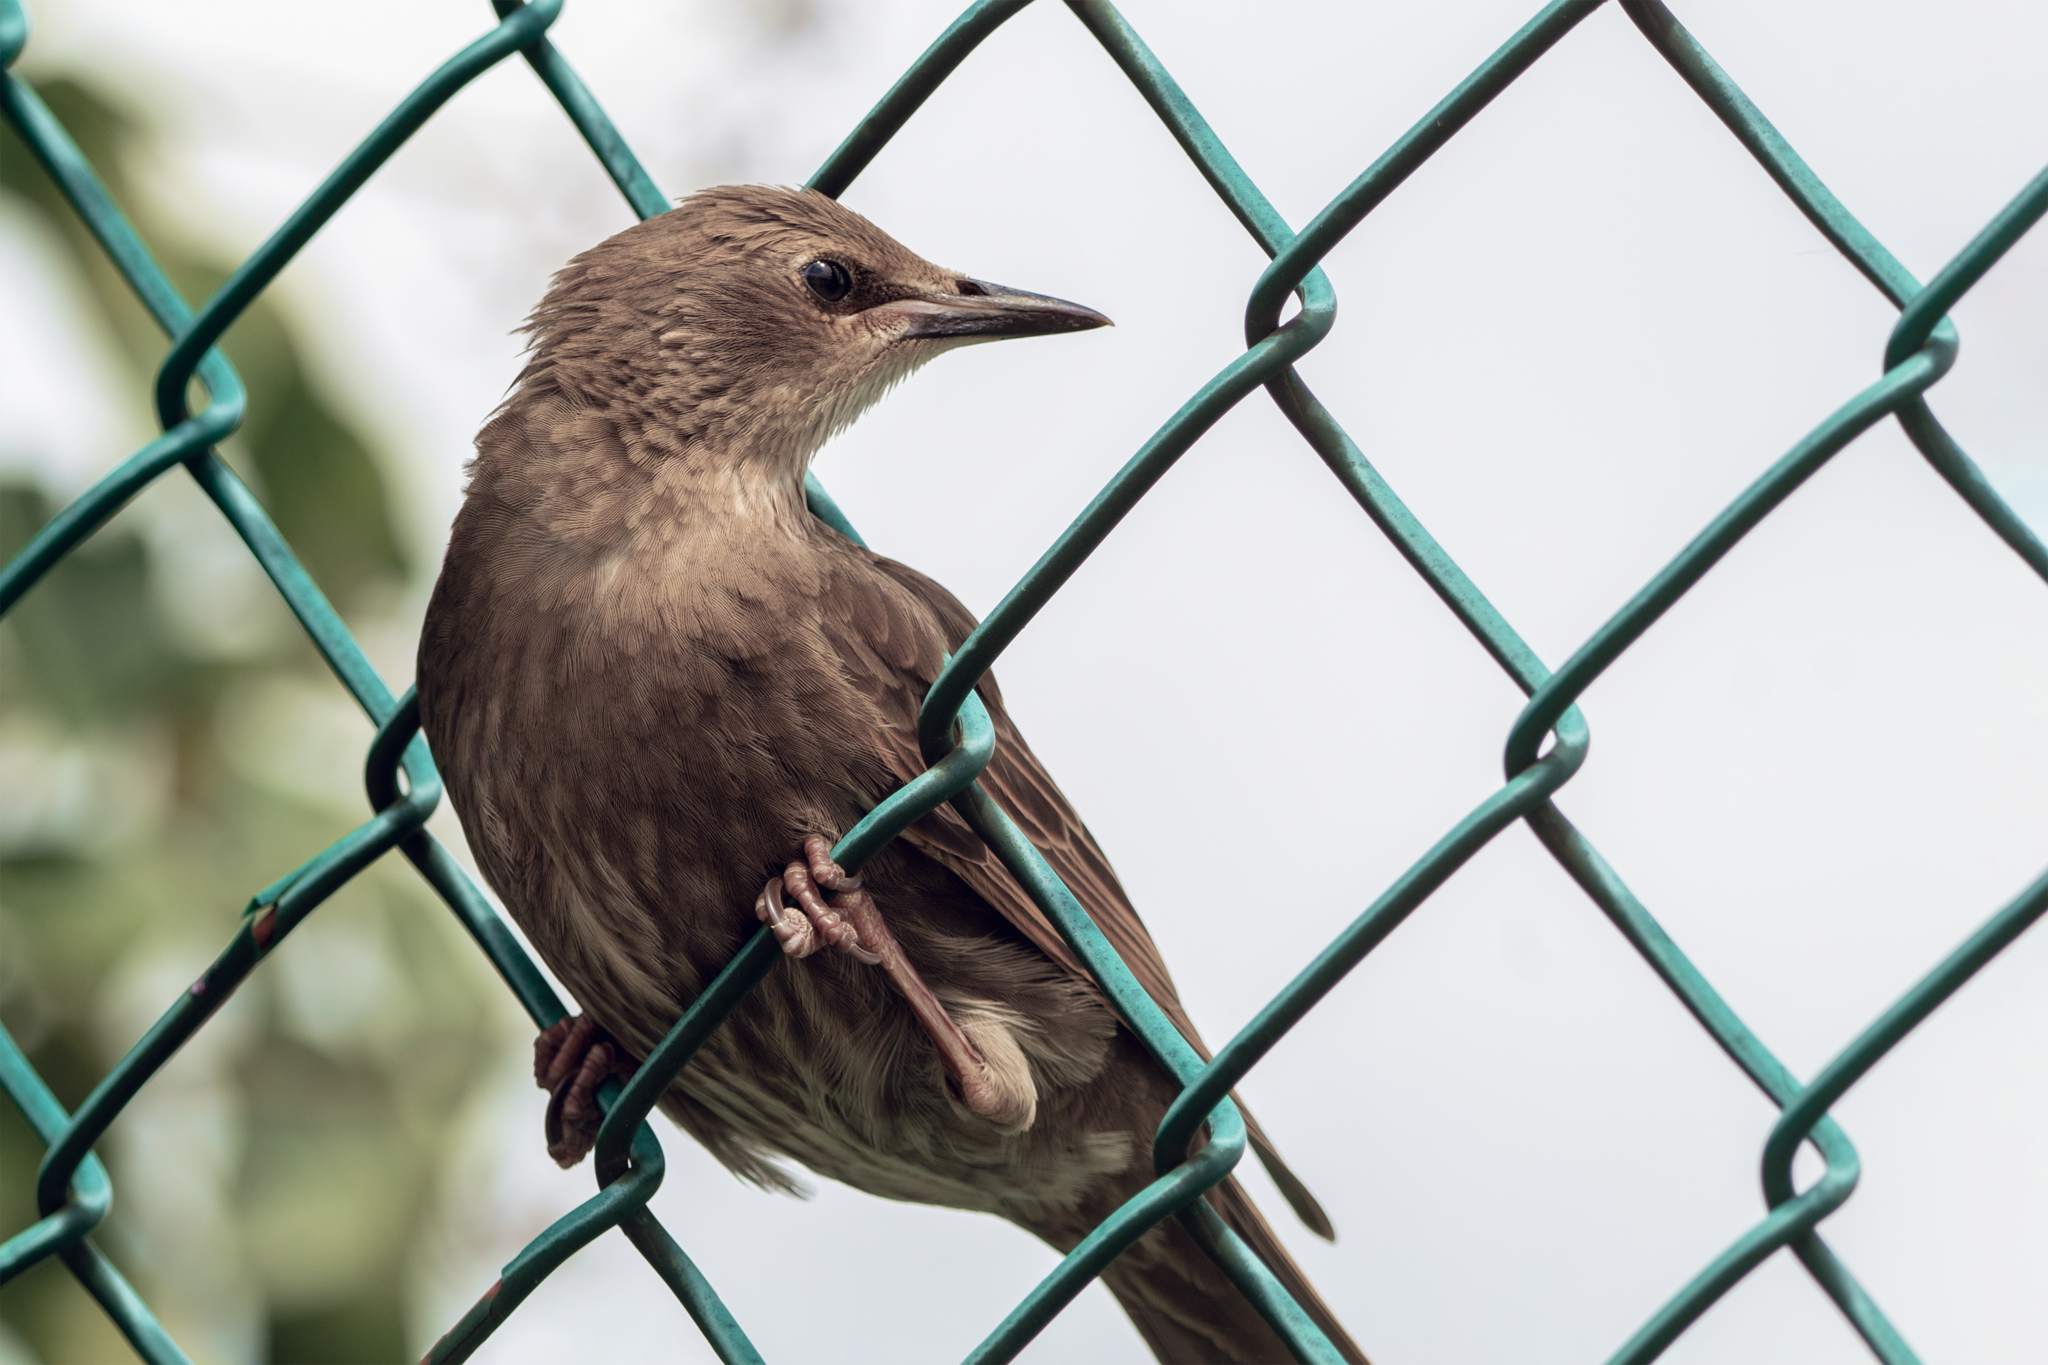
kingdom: Animalia
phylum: Chordata
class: Aves
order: Passeriformes
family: Sturnidae
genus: Sturnus
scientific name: Sturnus vulgaris
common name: Common starling
